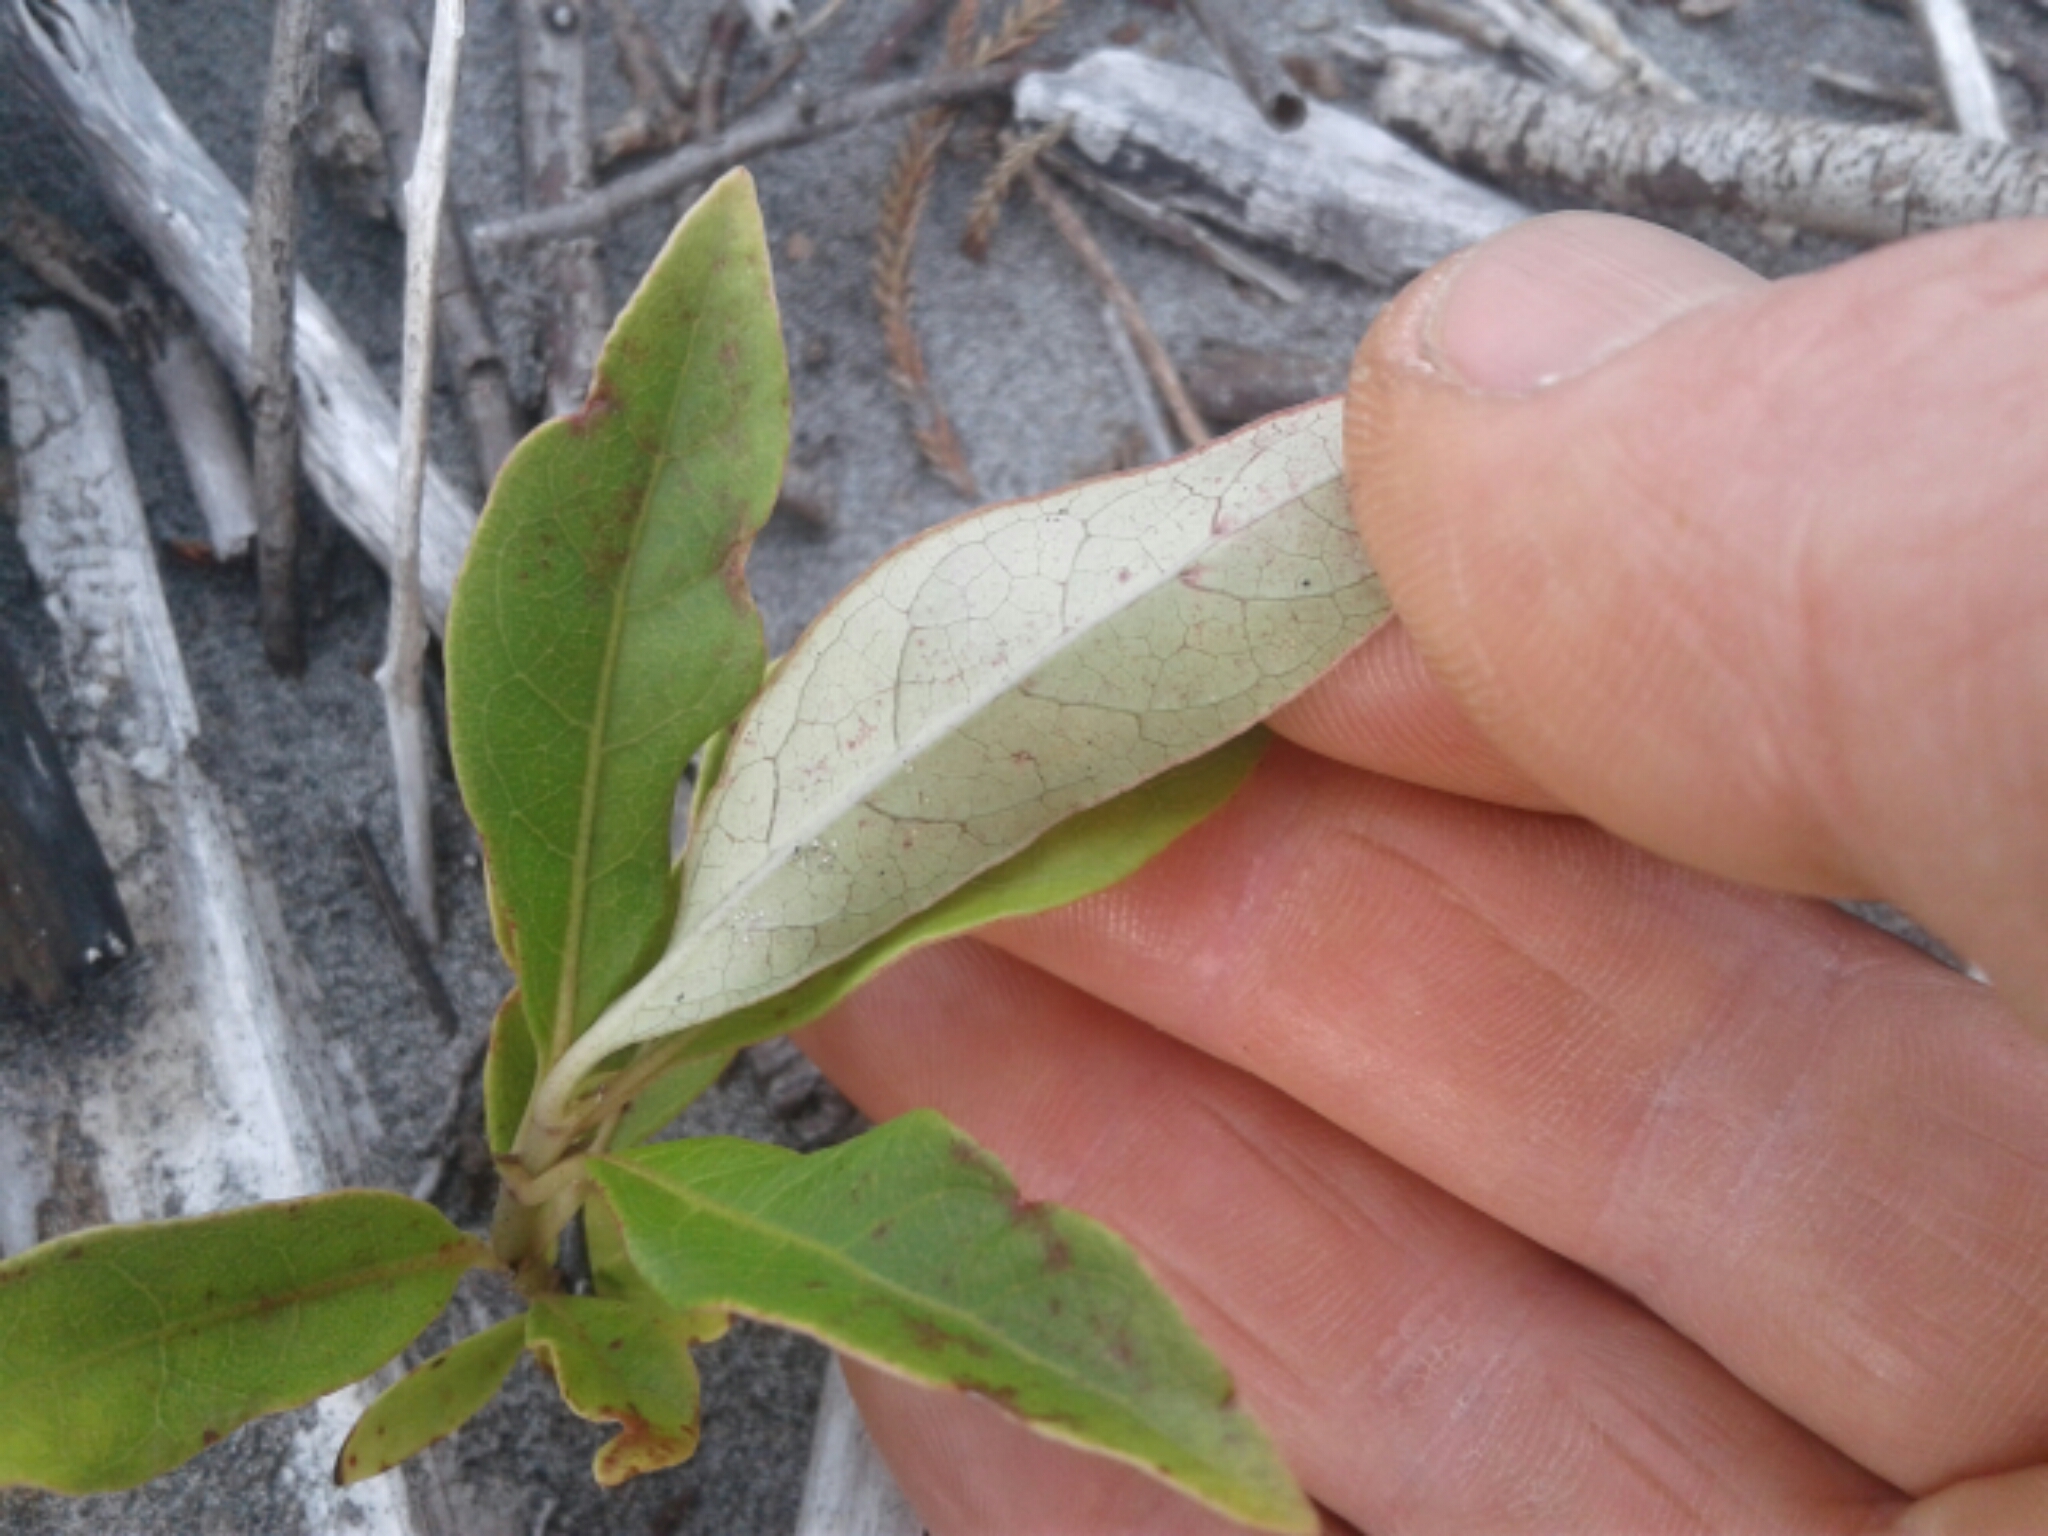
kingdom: Plantae
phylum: Tracheophyta
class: Magnoliopsida
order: Gentianales
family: Rubiaceae
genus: Coprosma
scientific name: Coprosma autumnalis
